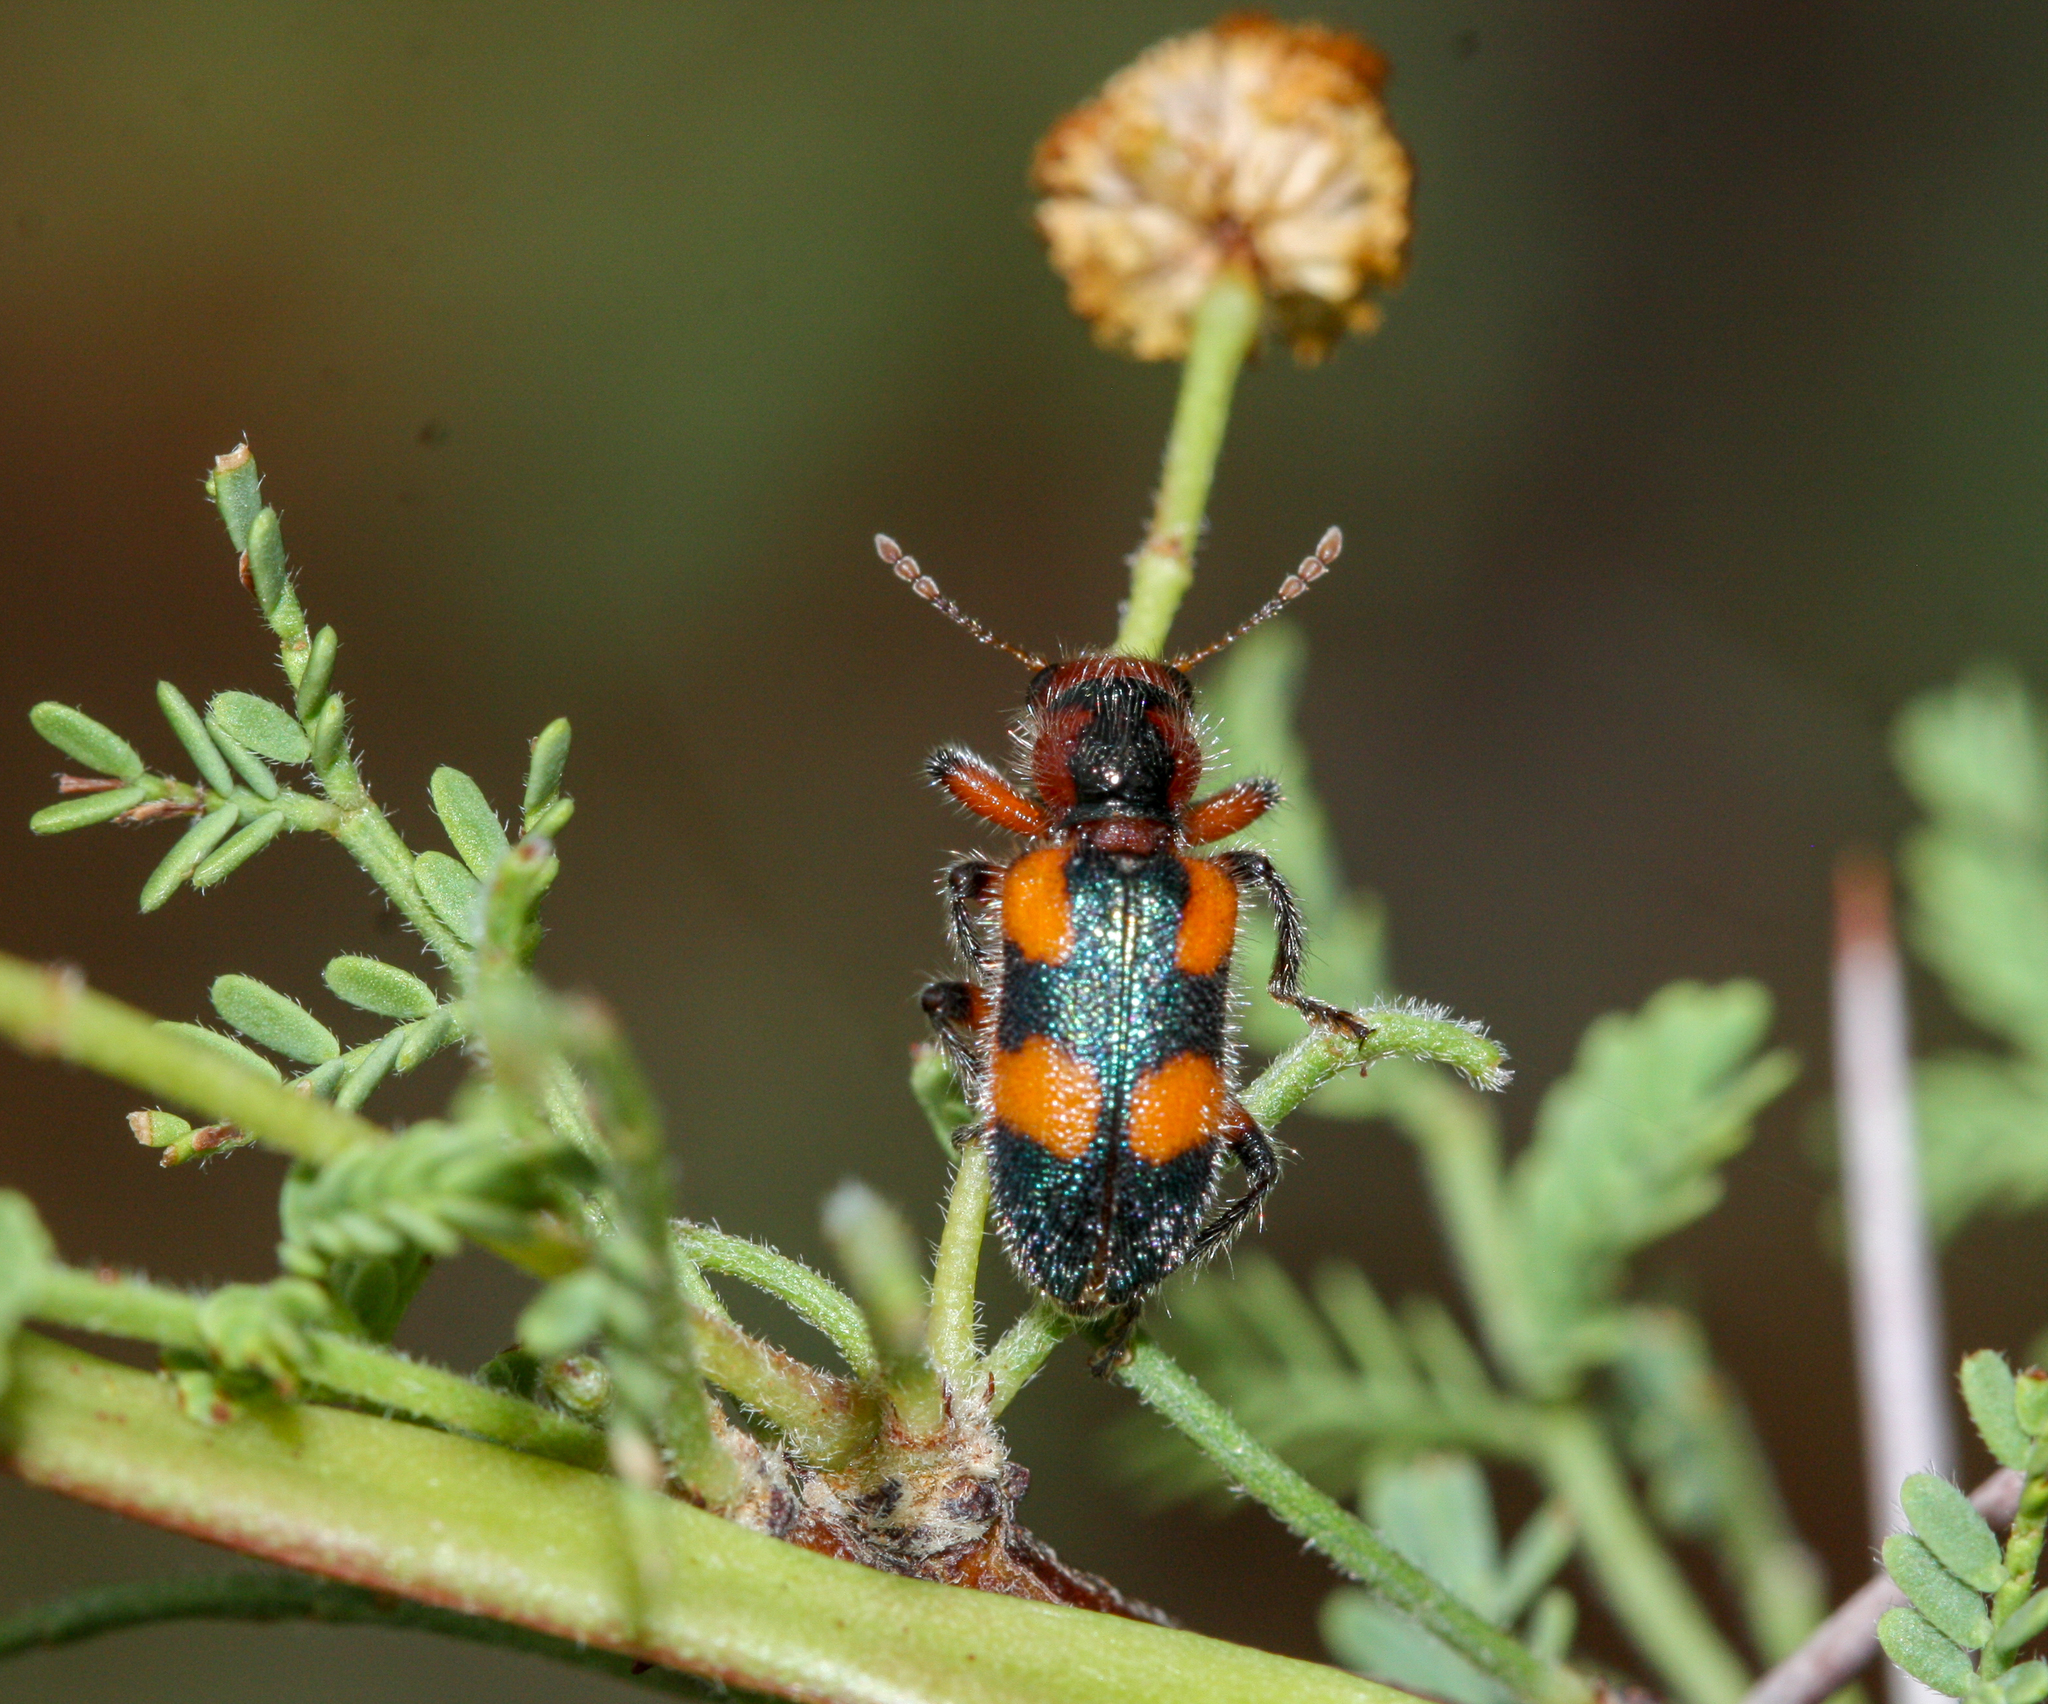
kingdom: Animalia
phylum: Arthropoda
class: Insecta
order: Coleoptera
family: Cleridae
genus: Aulicus
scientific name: Aulicus femoralis
